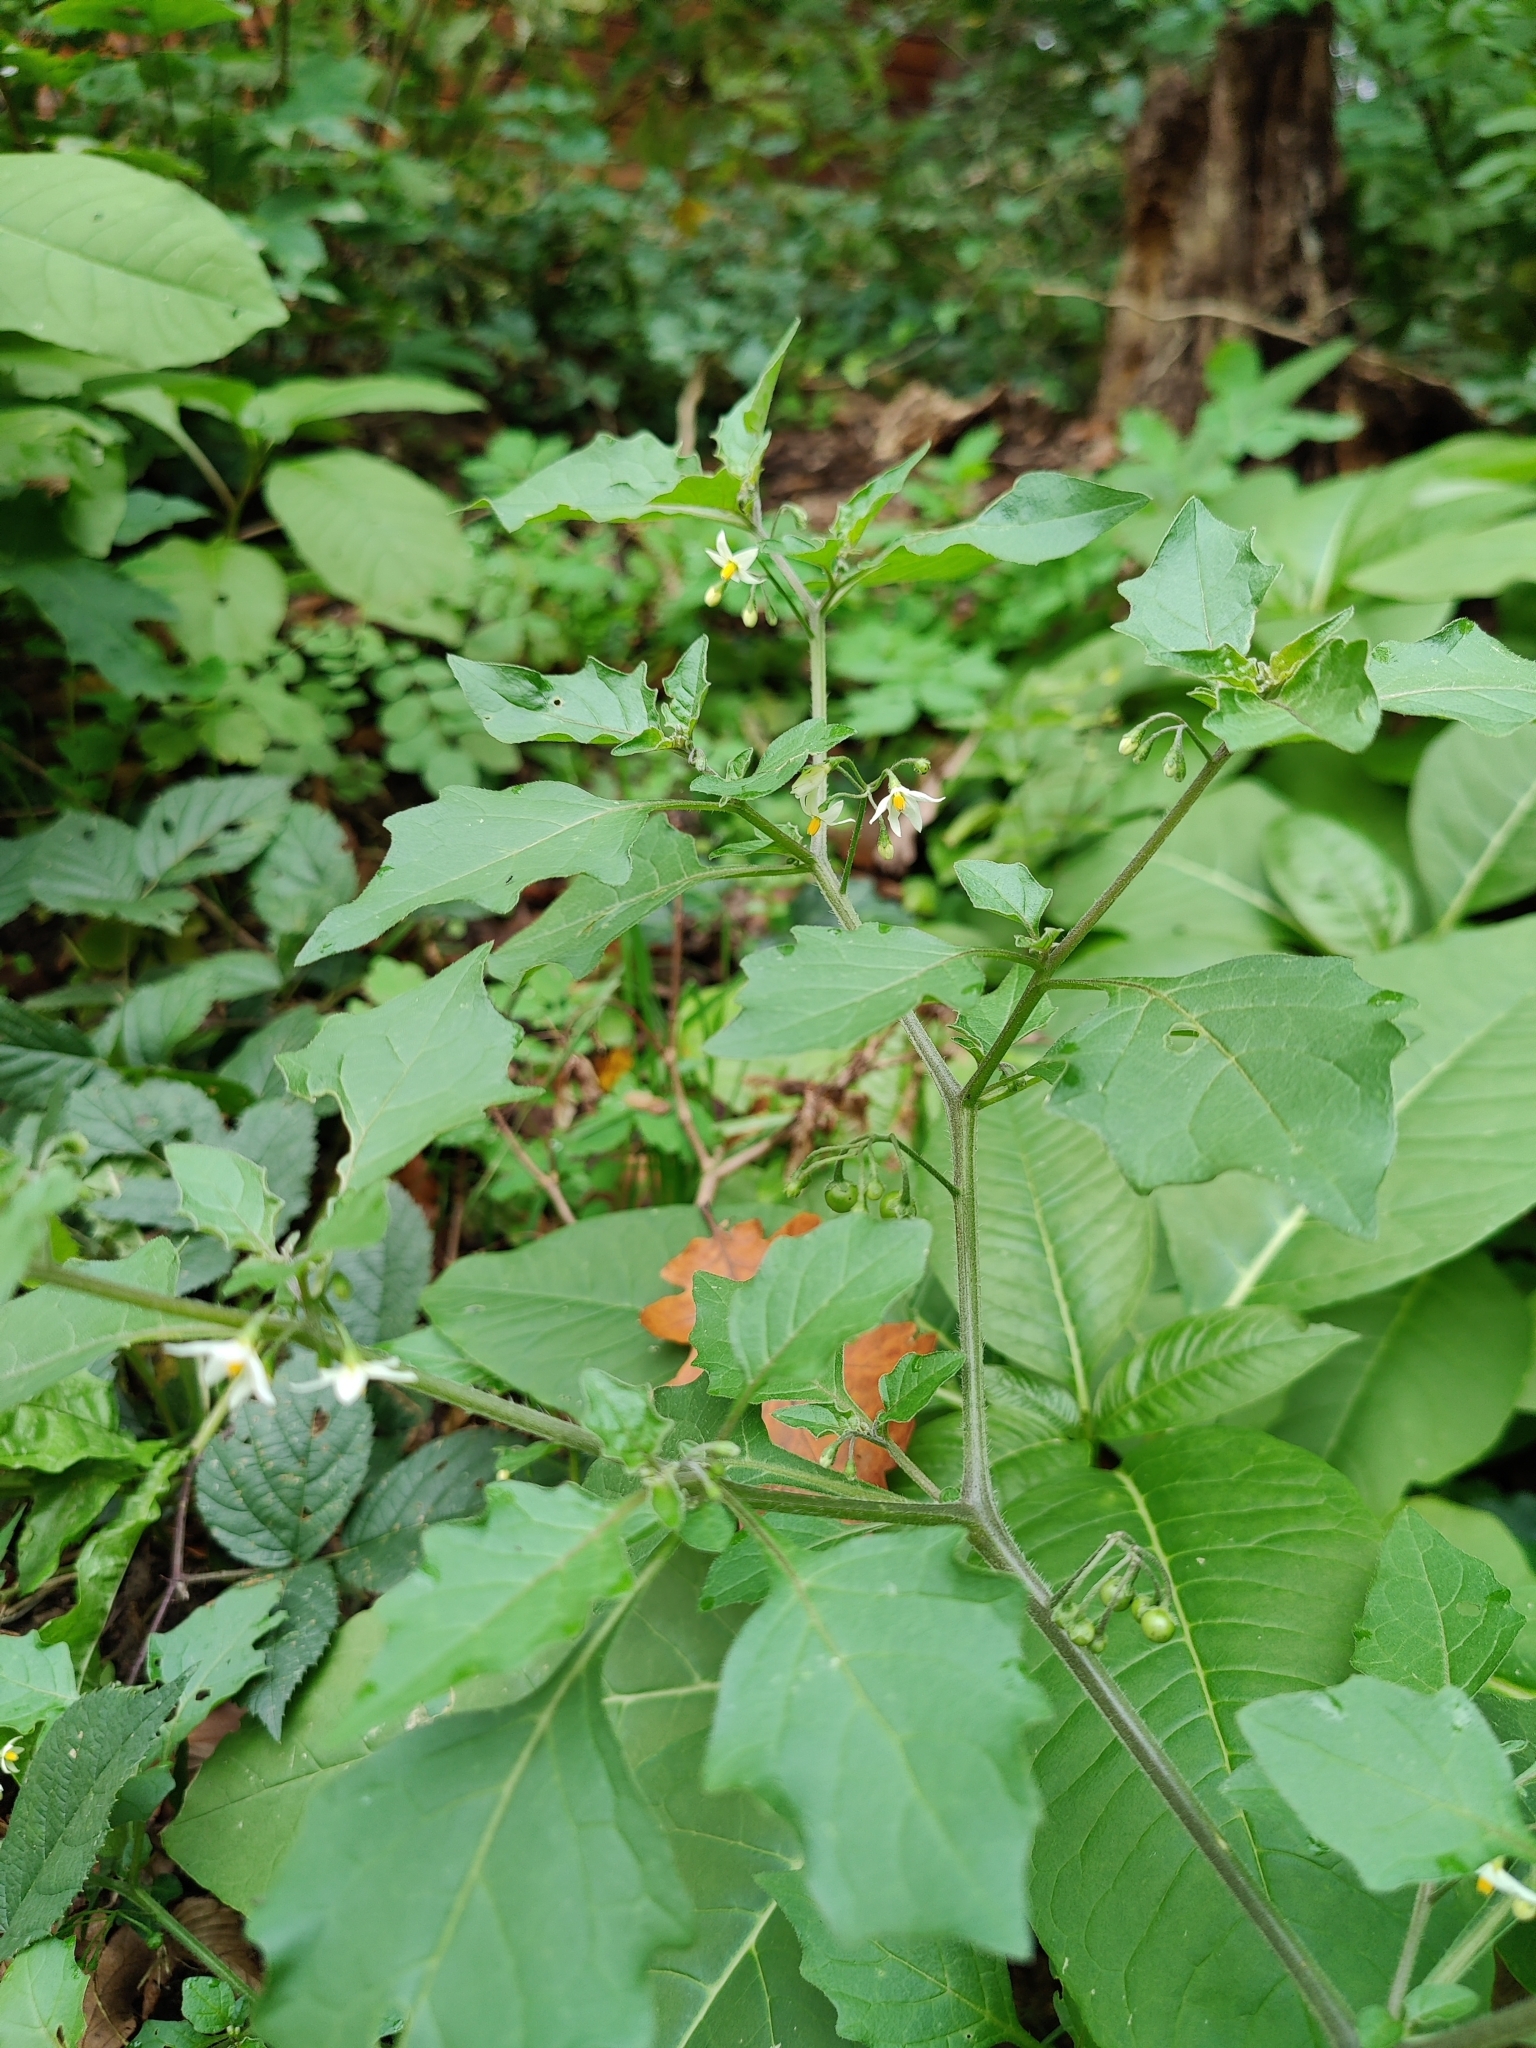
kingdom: Plantae
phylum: Tracheophyta
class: Magnoliopsida
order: Solanales
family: Solanaceae
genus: Solanum
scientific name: Solanum nigrum
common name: Black nightshade
